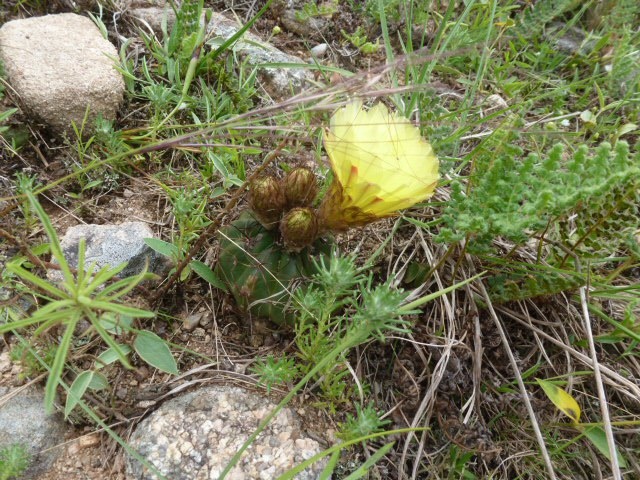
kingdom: Plantae
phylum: Tracheophyta
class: Magnoliopsida
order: Caryophyllales
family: Cactaceae
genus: Parodia
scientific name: Parodia ottonis
